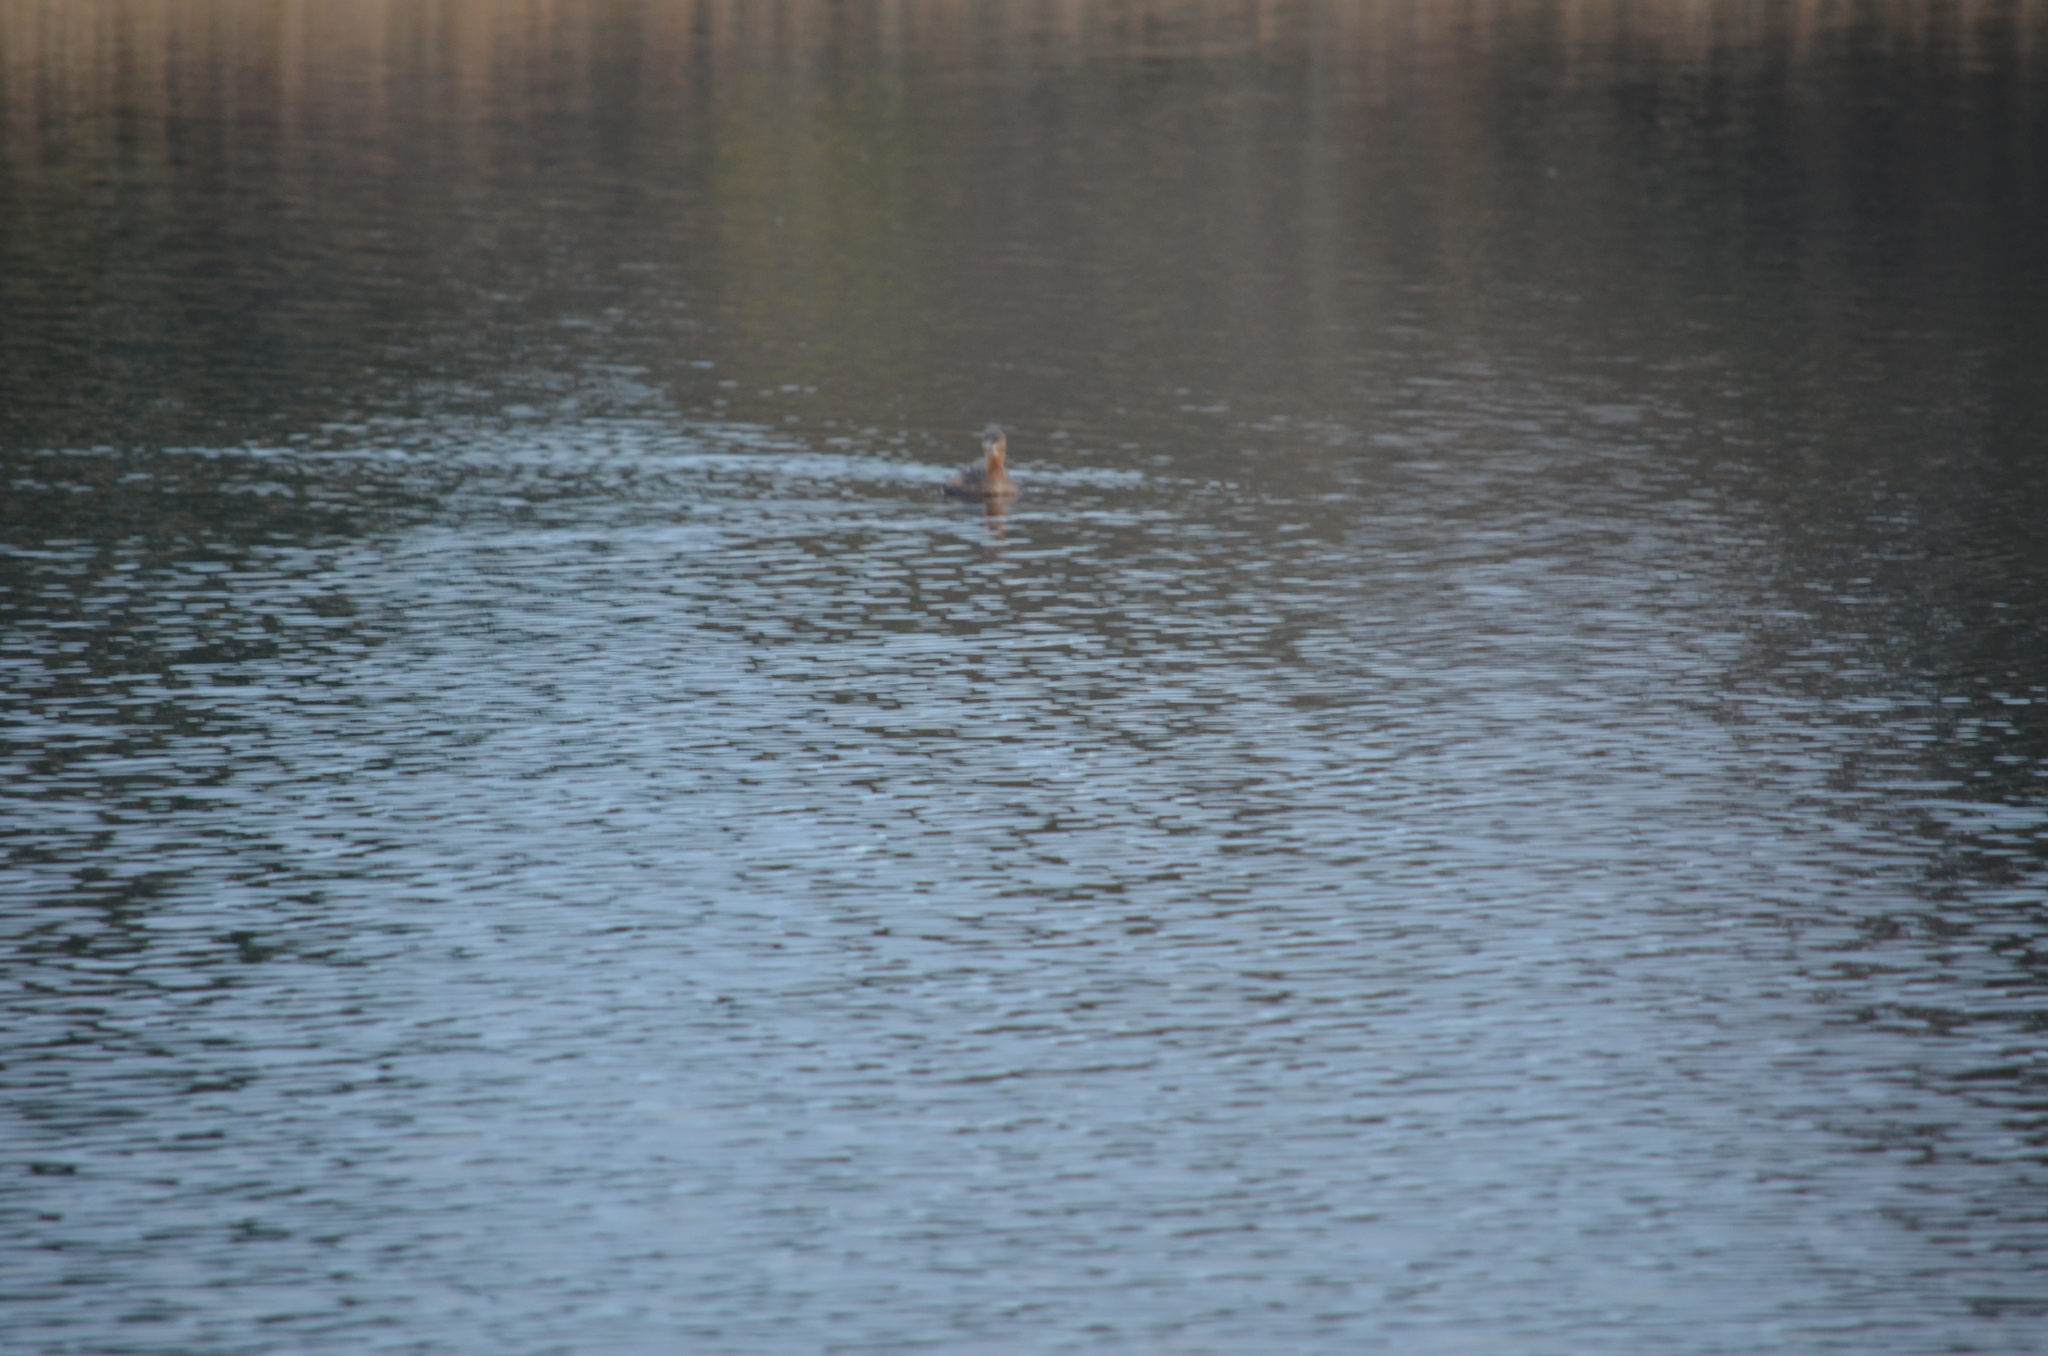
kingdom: Animalia
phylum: Chordata
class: Aves
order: Podicipediformes
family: Podicipedidae
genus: Podilymbus
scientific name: Podilymbus podiceps
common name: Pied-billed grebe
